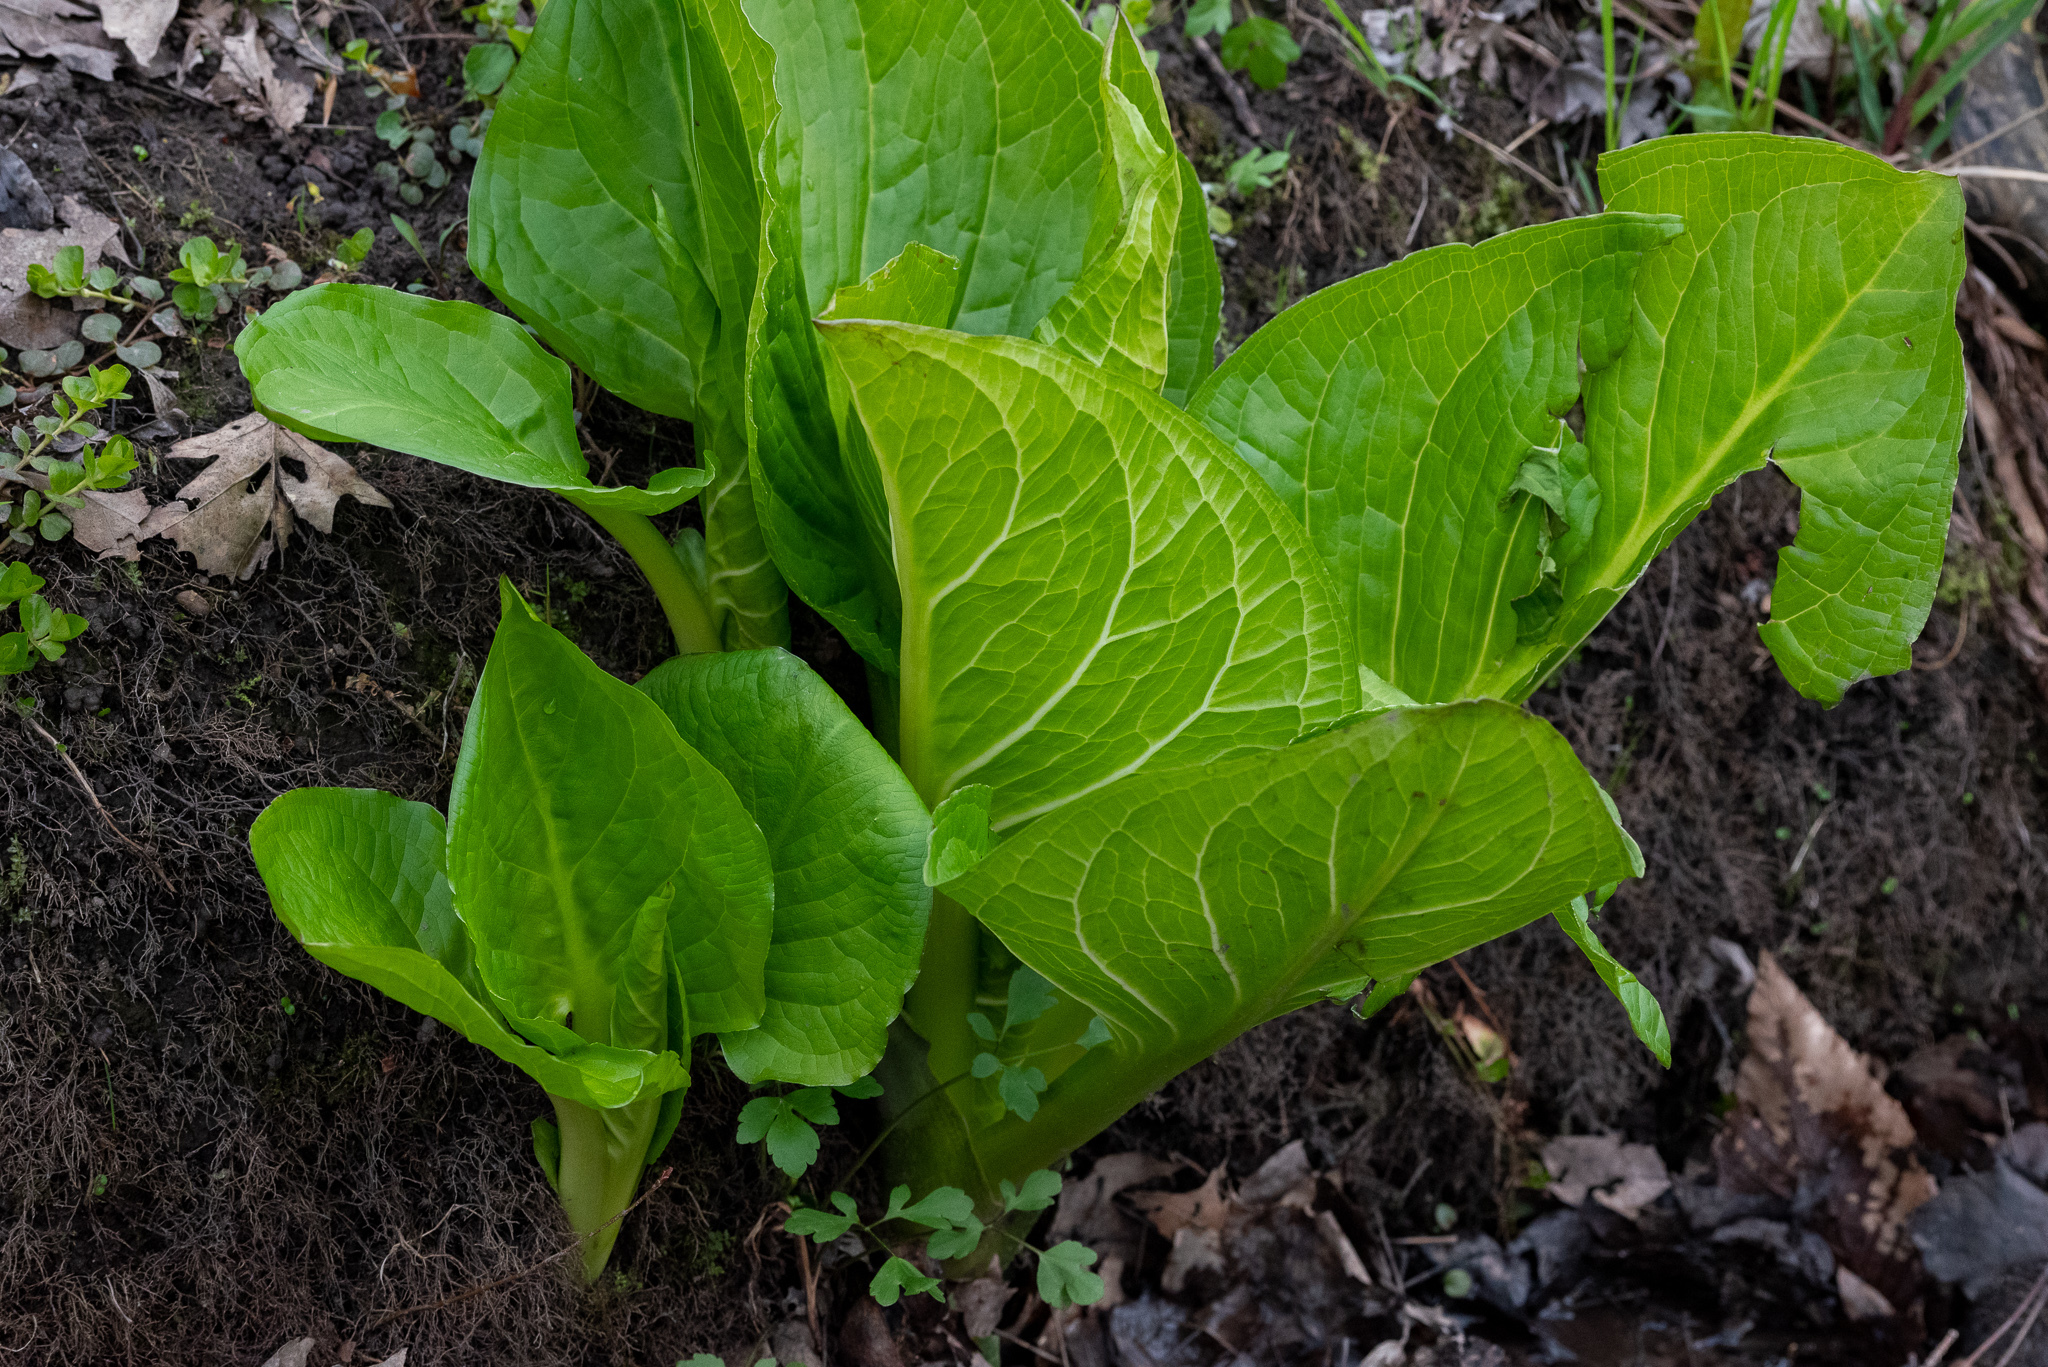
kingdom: Plantae
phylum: Tracheophyta
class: Liliopsida
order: Alismatales
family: Araceae
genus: Symplocarpus
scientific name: Symplocarpus foetidus
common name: Eastern skunk cabbage
